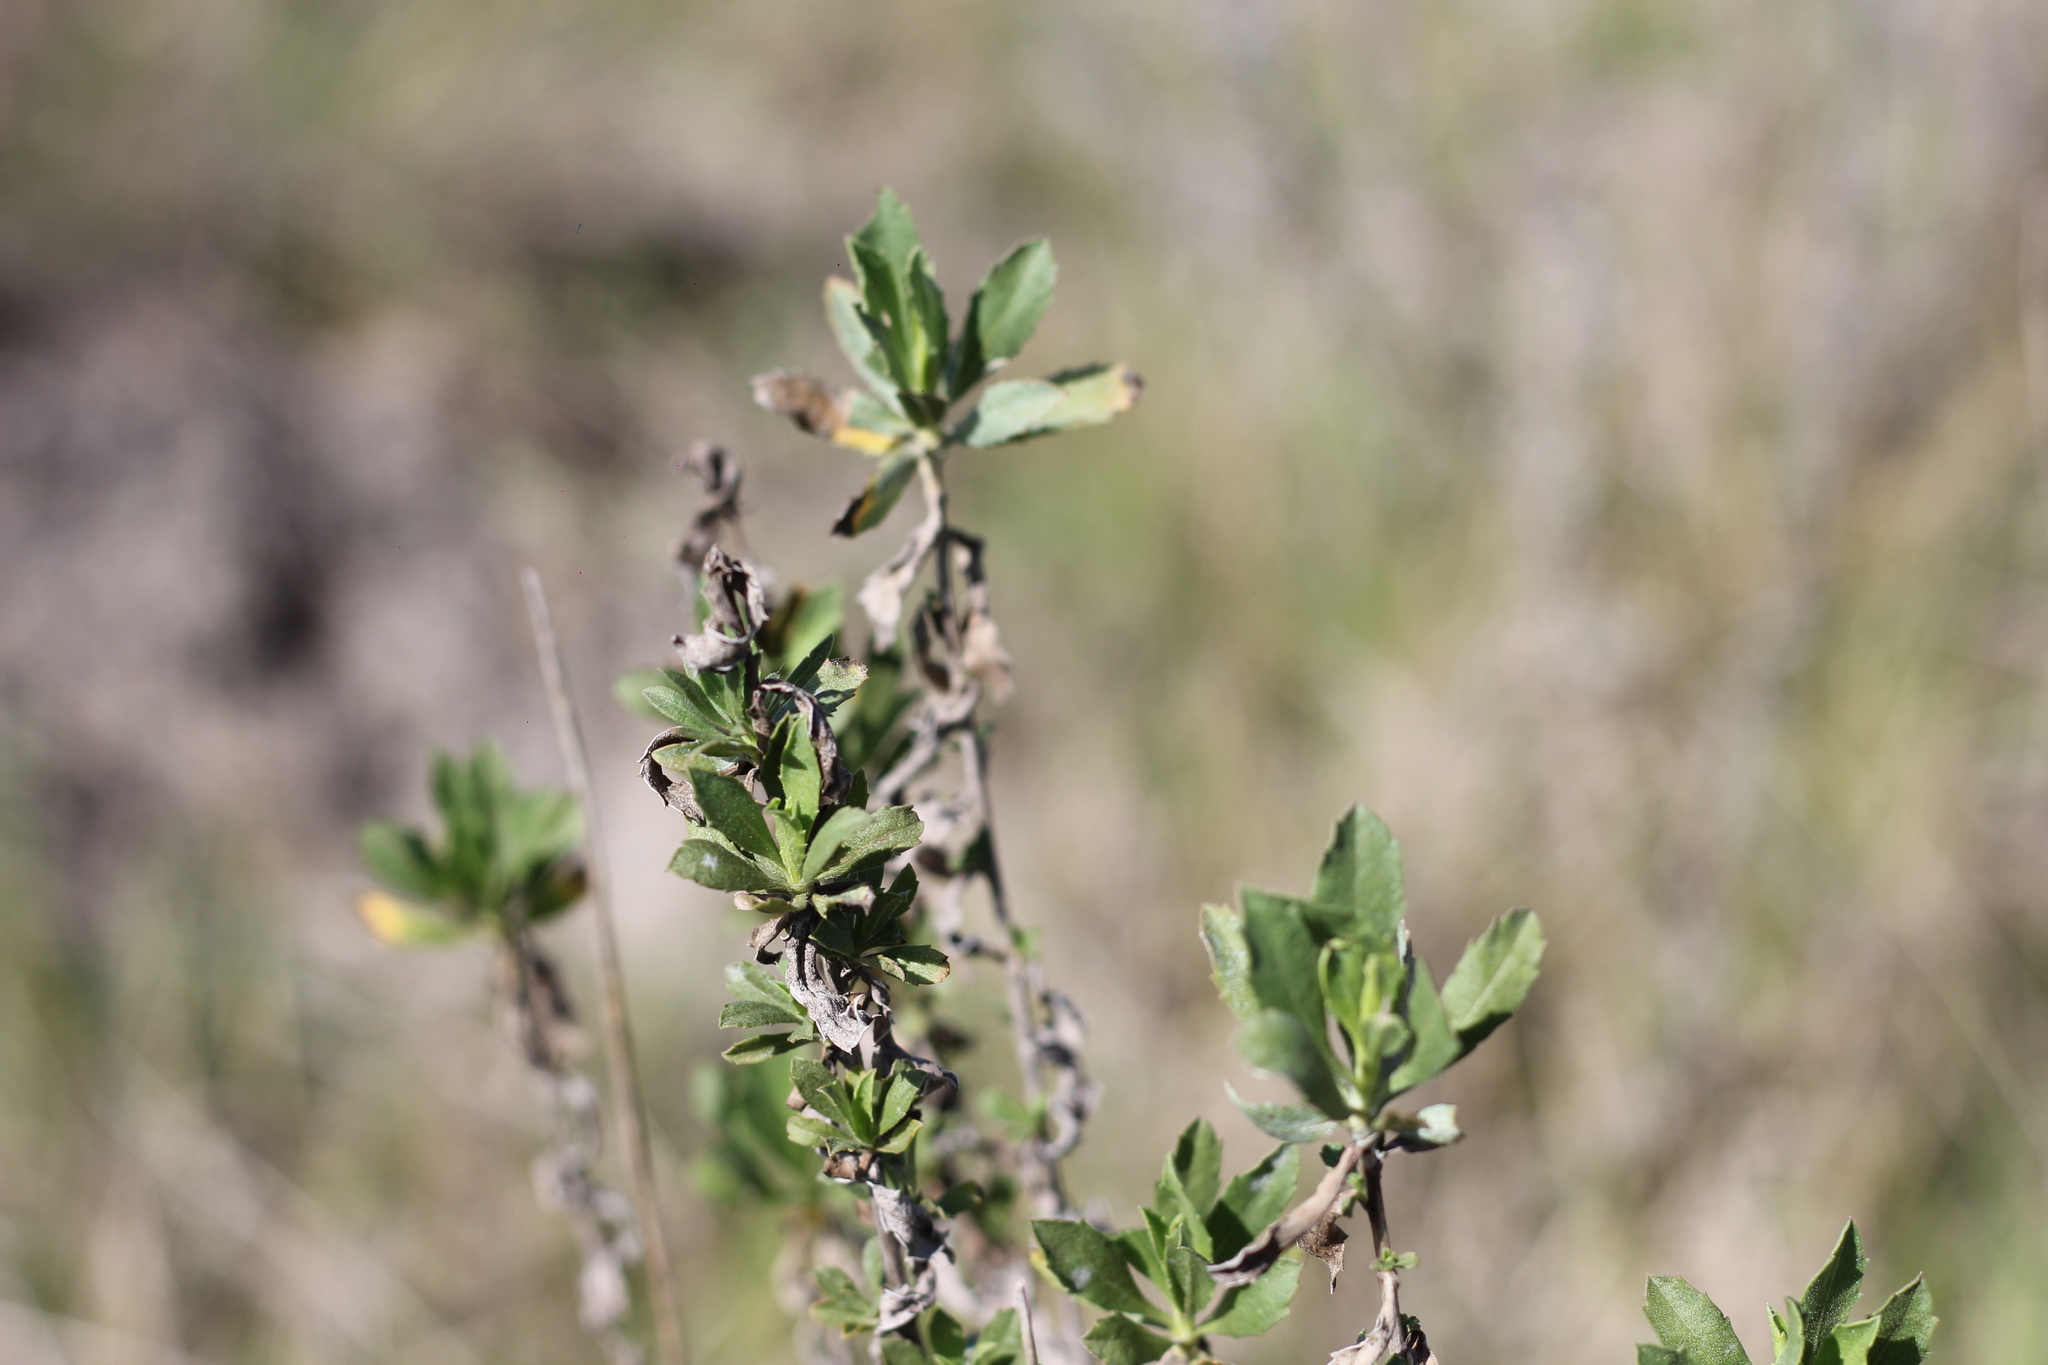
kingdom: Plantae
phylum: Tracheophyta
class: Magnoliopsida
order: Asterales
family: Asteraceae
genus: Baccharis
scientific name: Baccharis dracunculifolia
